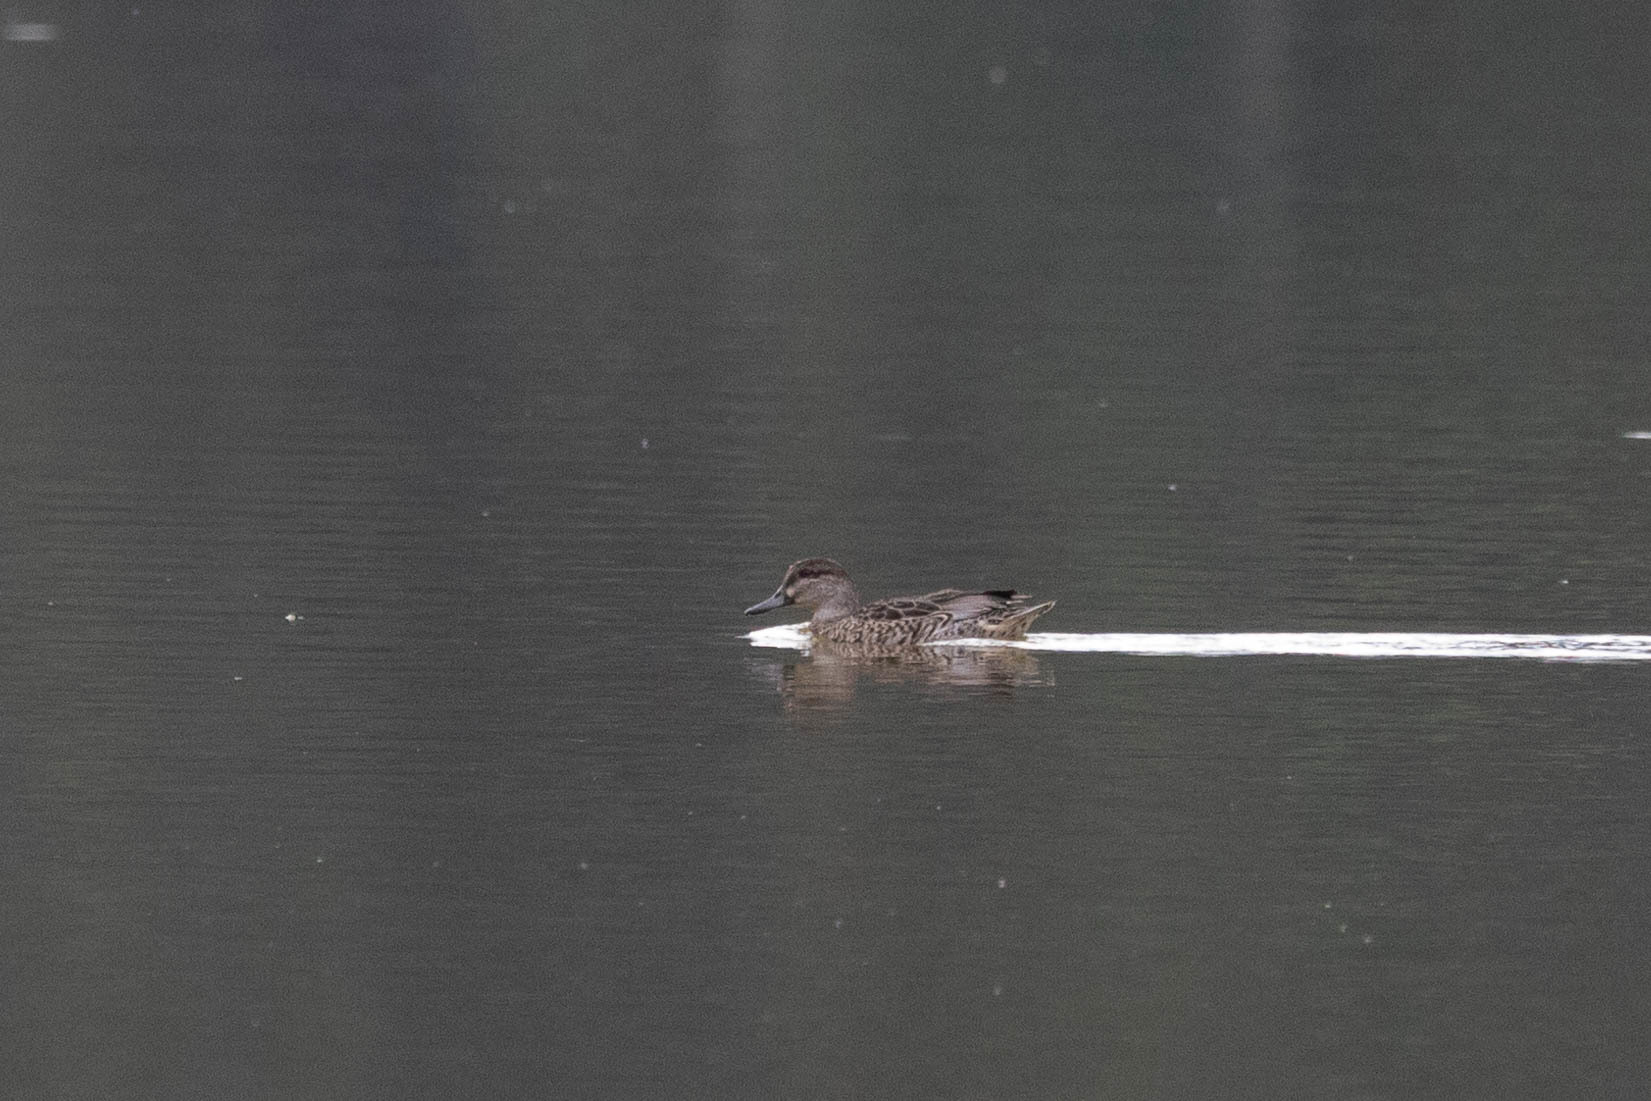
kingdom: Animalia
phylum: Chordata
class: Aves
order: Anseriformes
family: Anatidae
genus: Anas
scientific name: Anas crecca
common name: Eurasian teal
